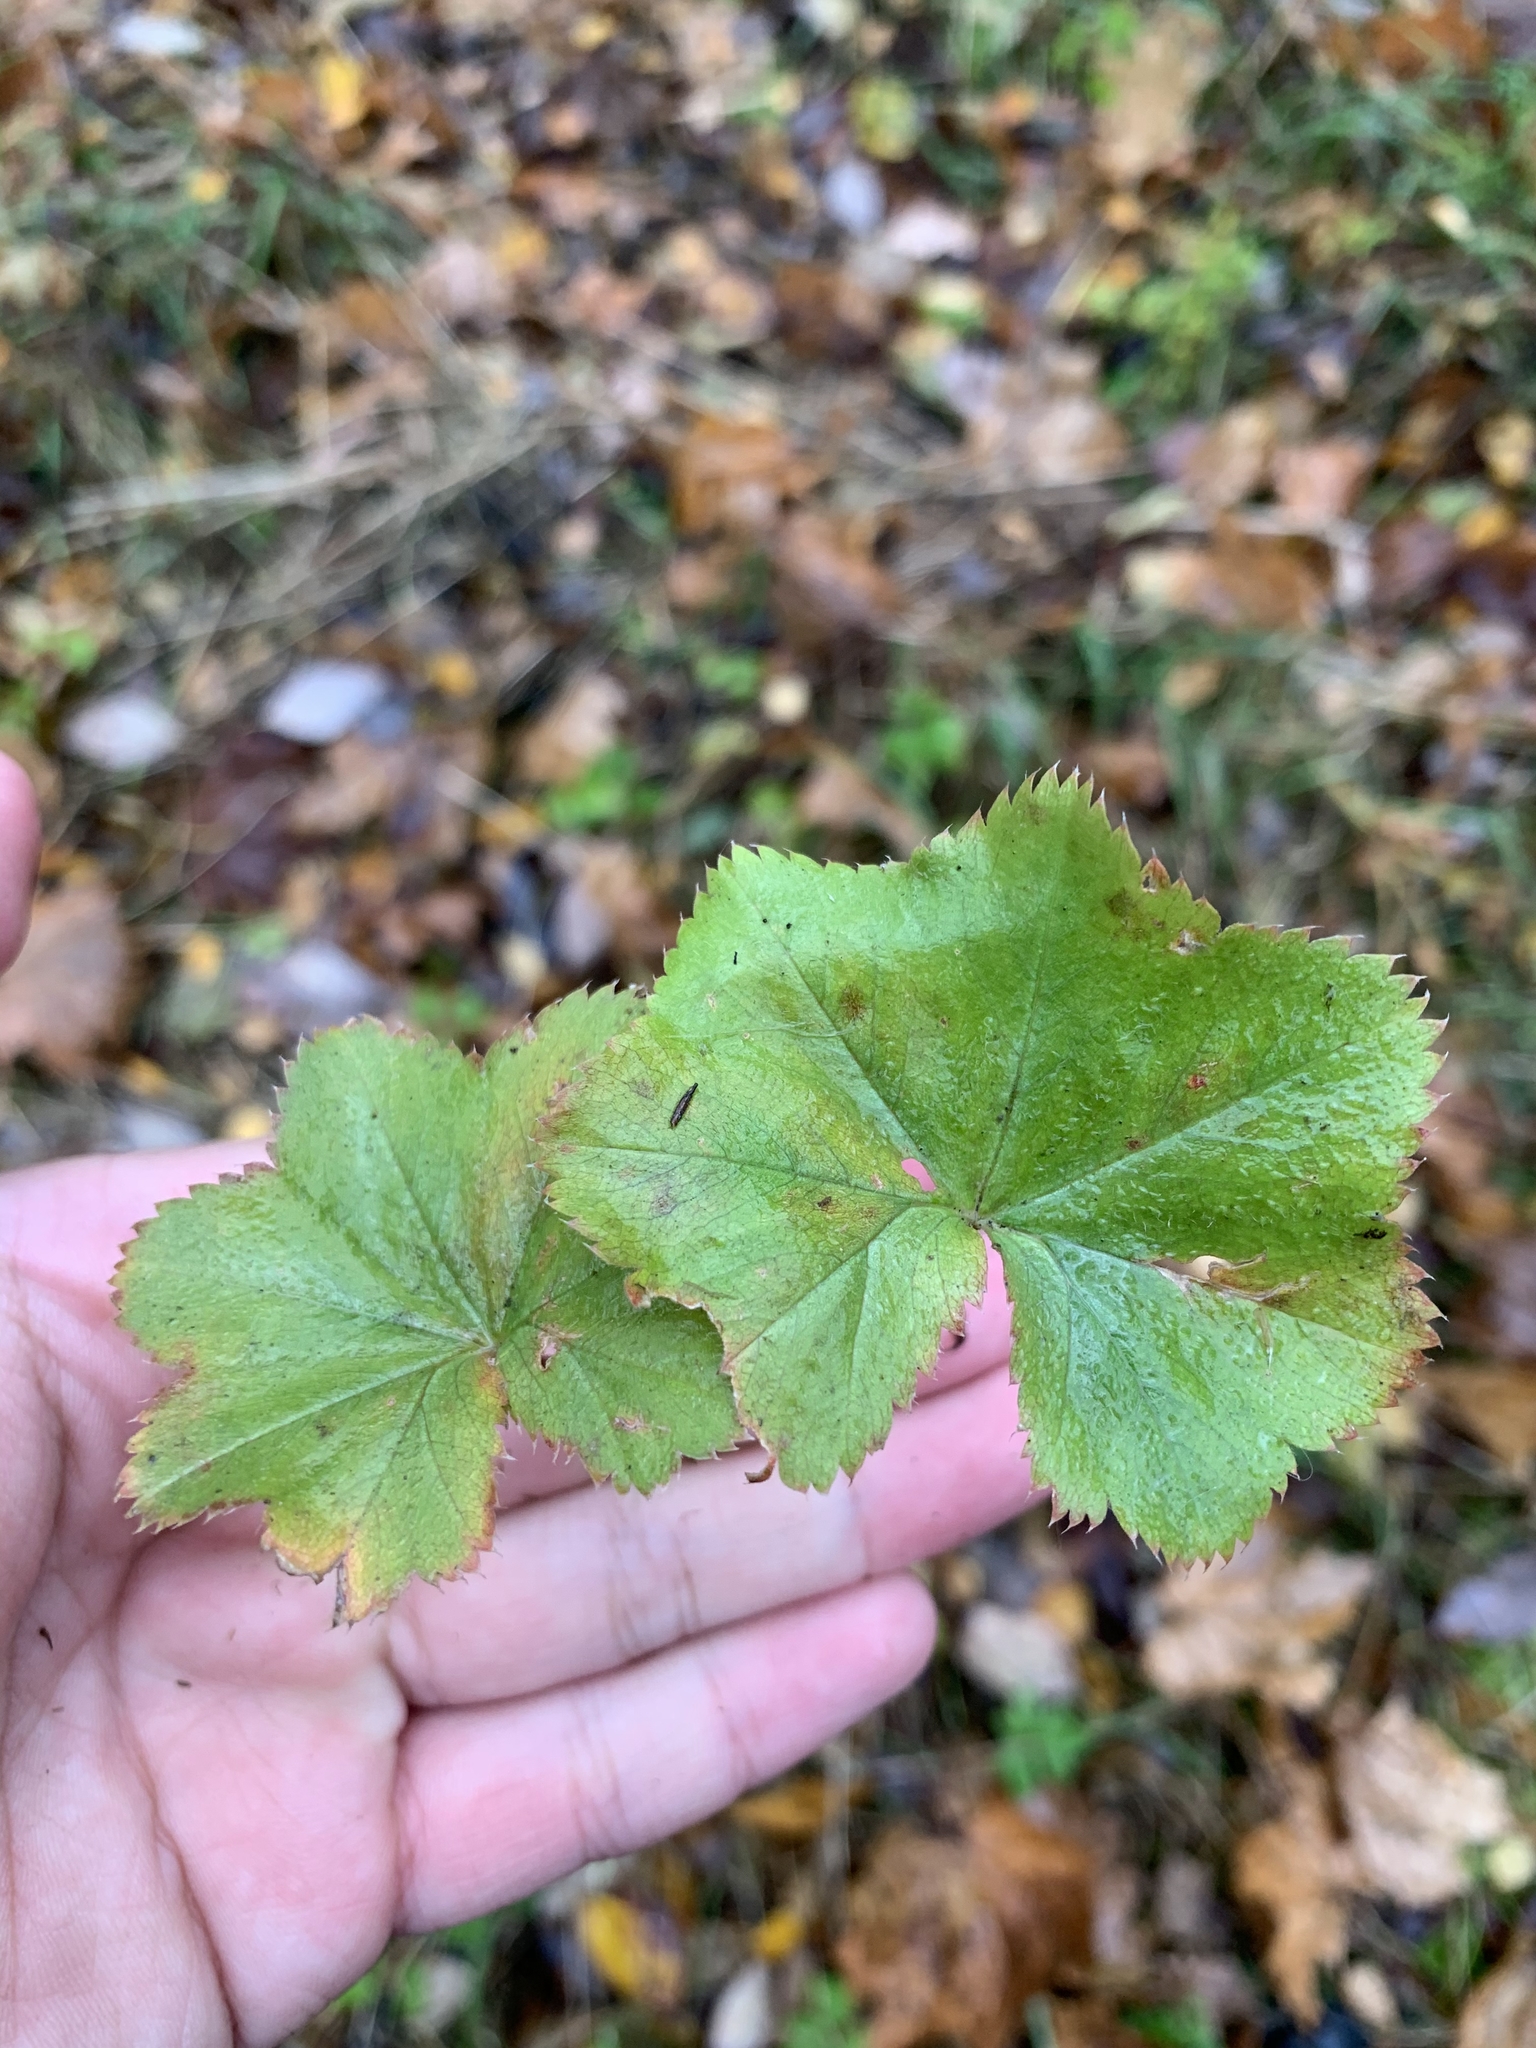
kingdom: Plantae
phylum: Tracheophyta
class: Magnoliopsida
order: Rosales
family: Rosaceae
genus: Alchemilla
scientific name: Alchemilla heptagona
